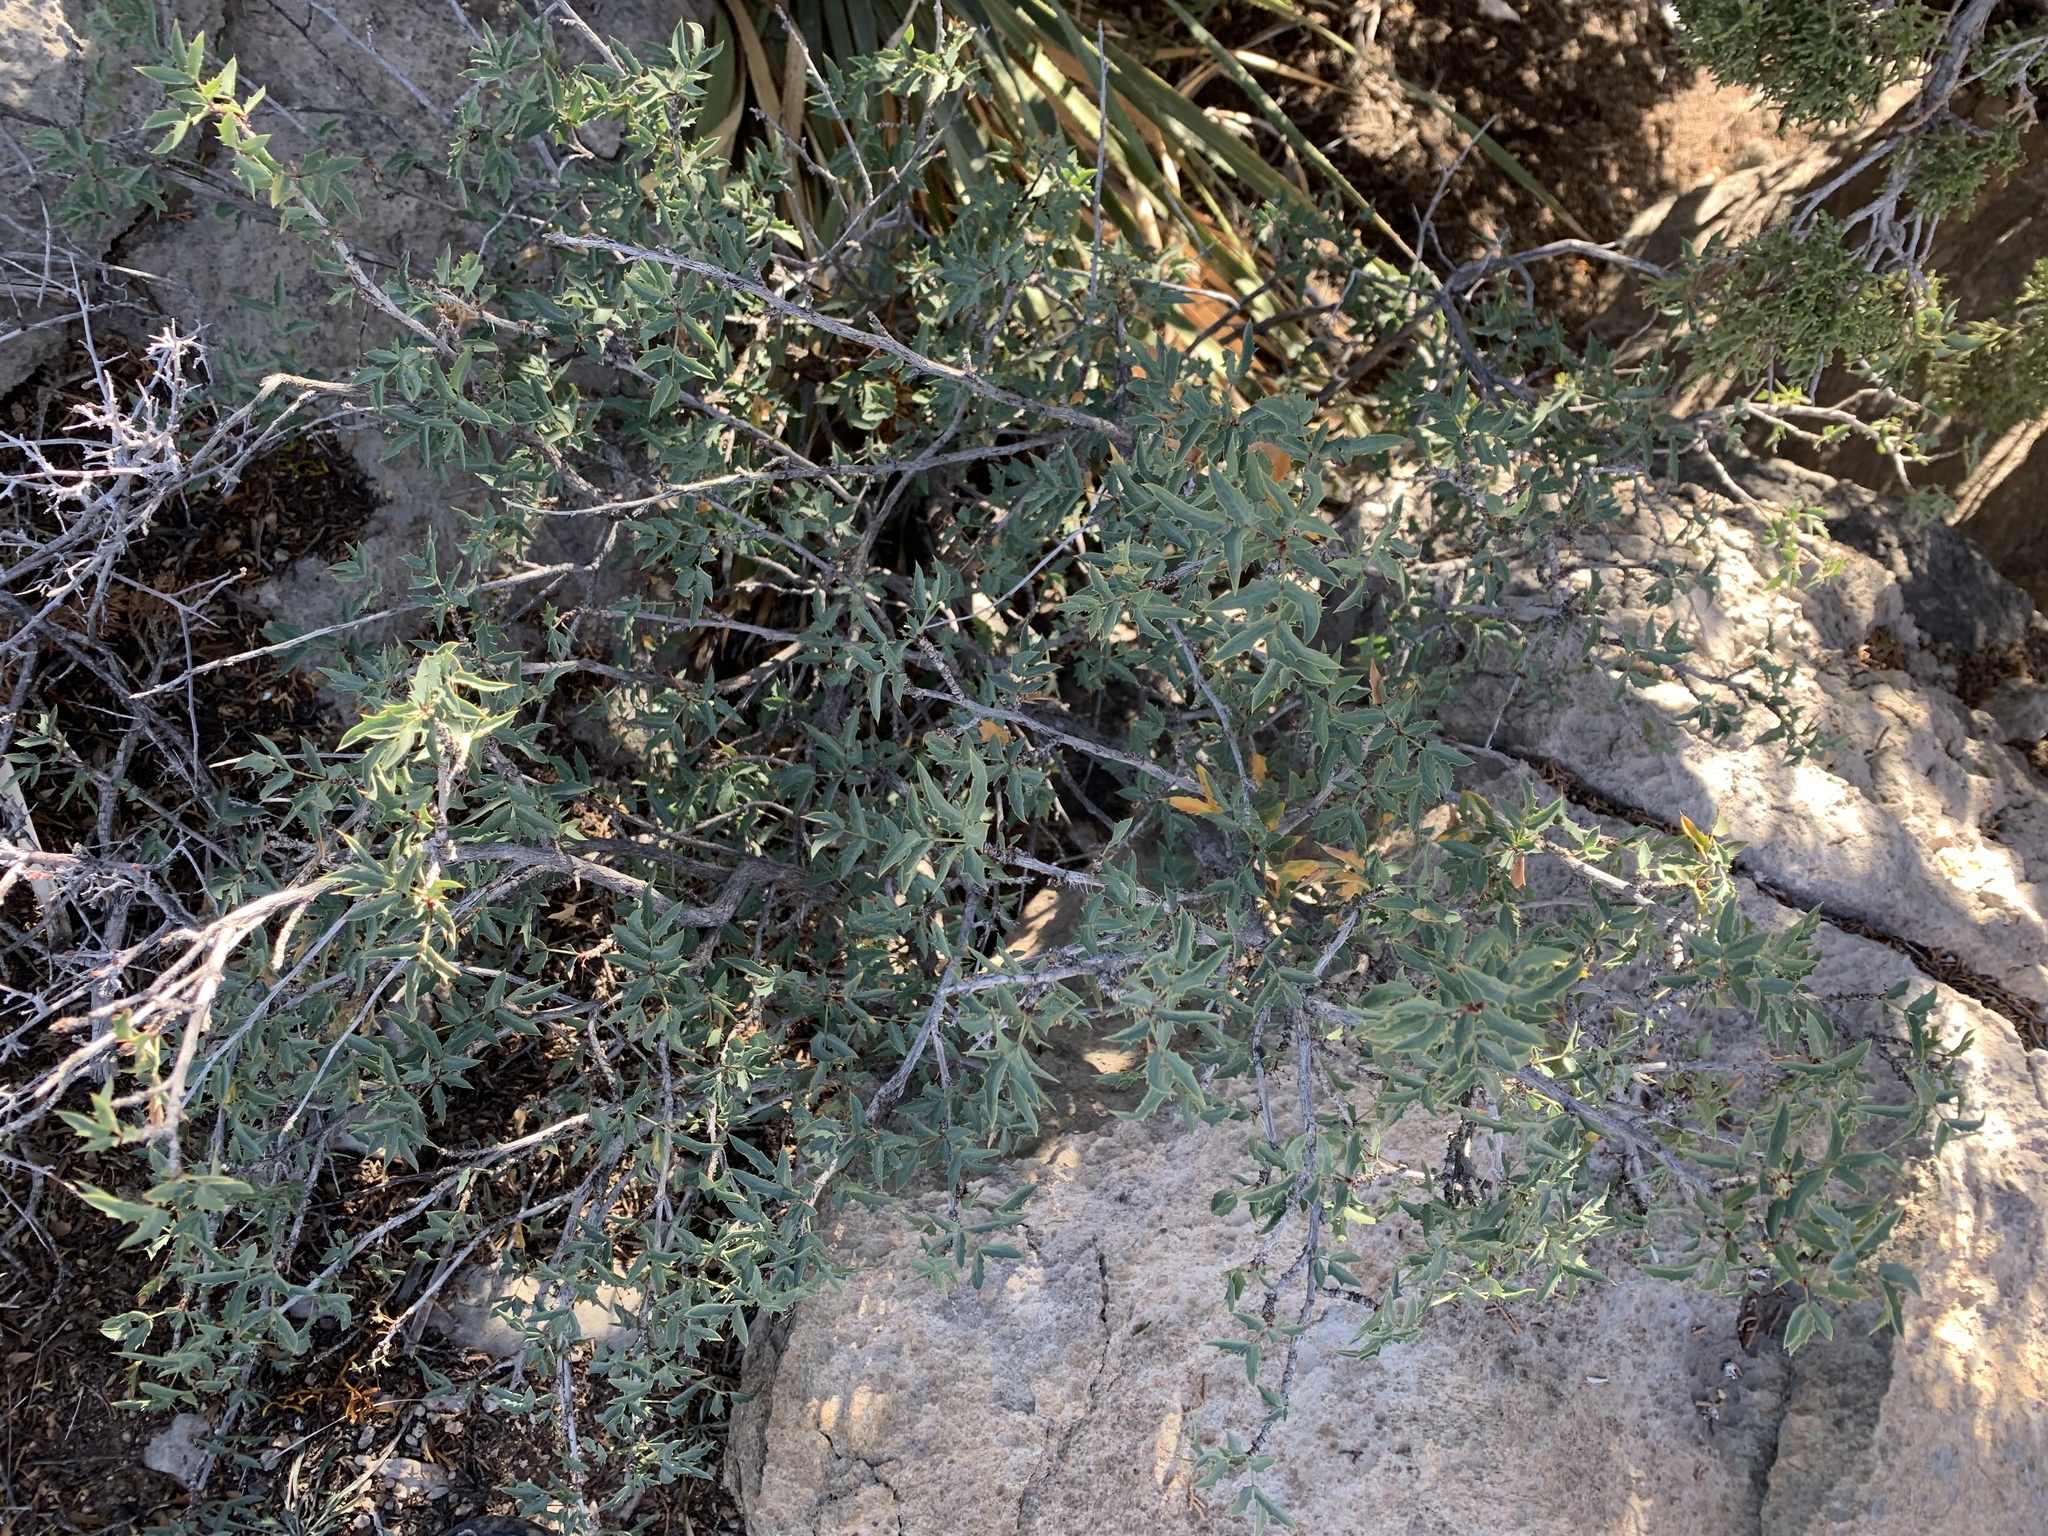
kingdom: Plantae
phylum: Tracheophyta
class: Magnoliopsida
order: Ranunculales
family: Berberidaceae
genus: Alloberberis
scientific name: Alloberberis haematocarpa
